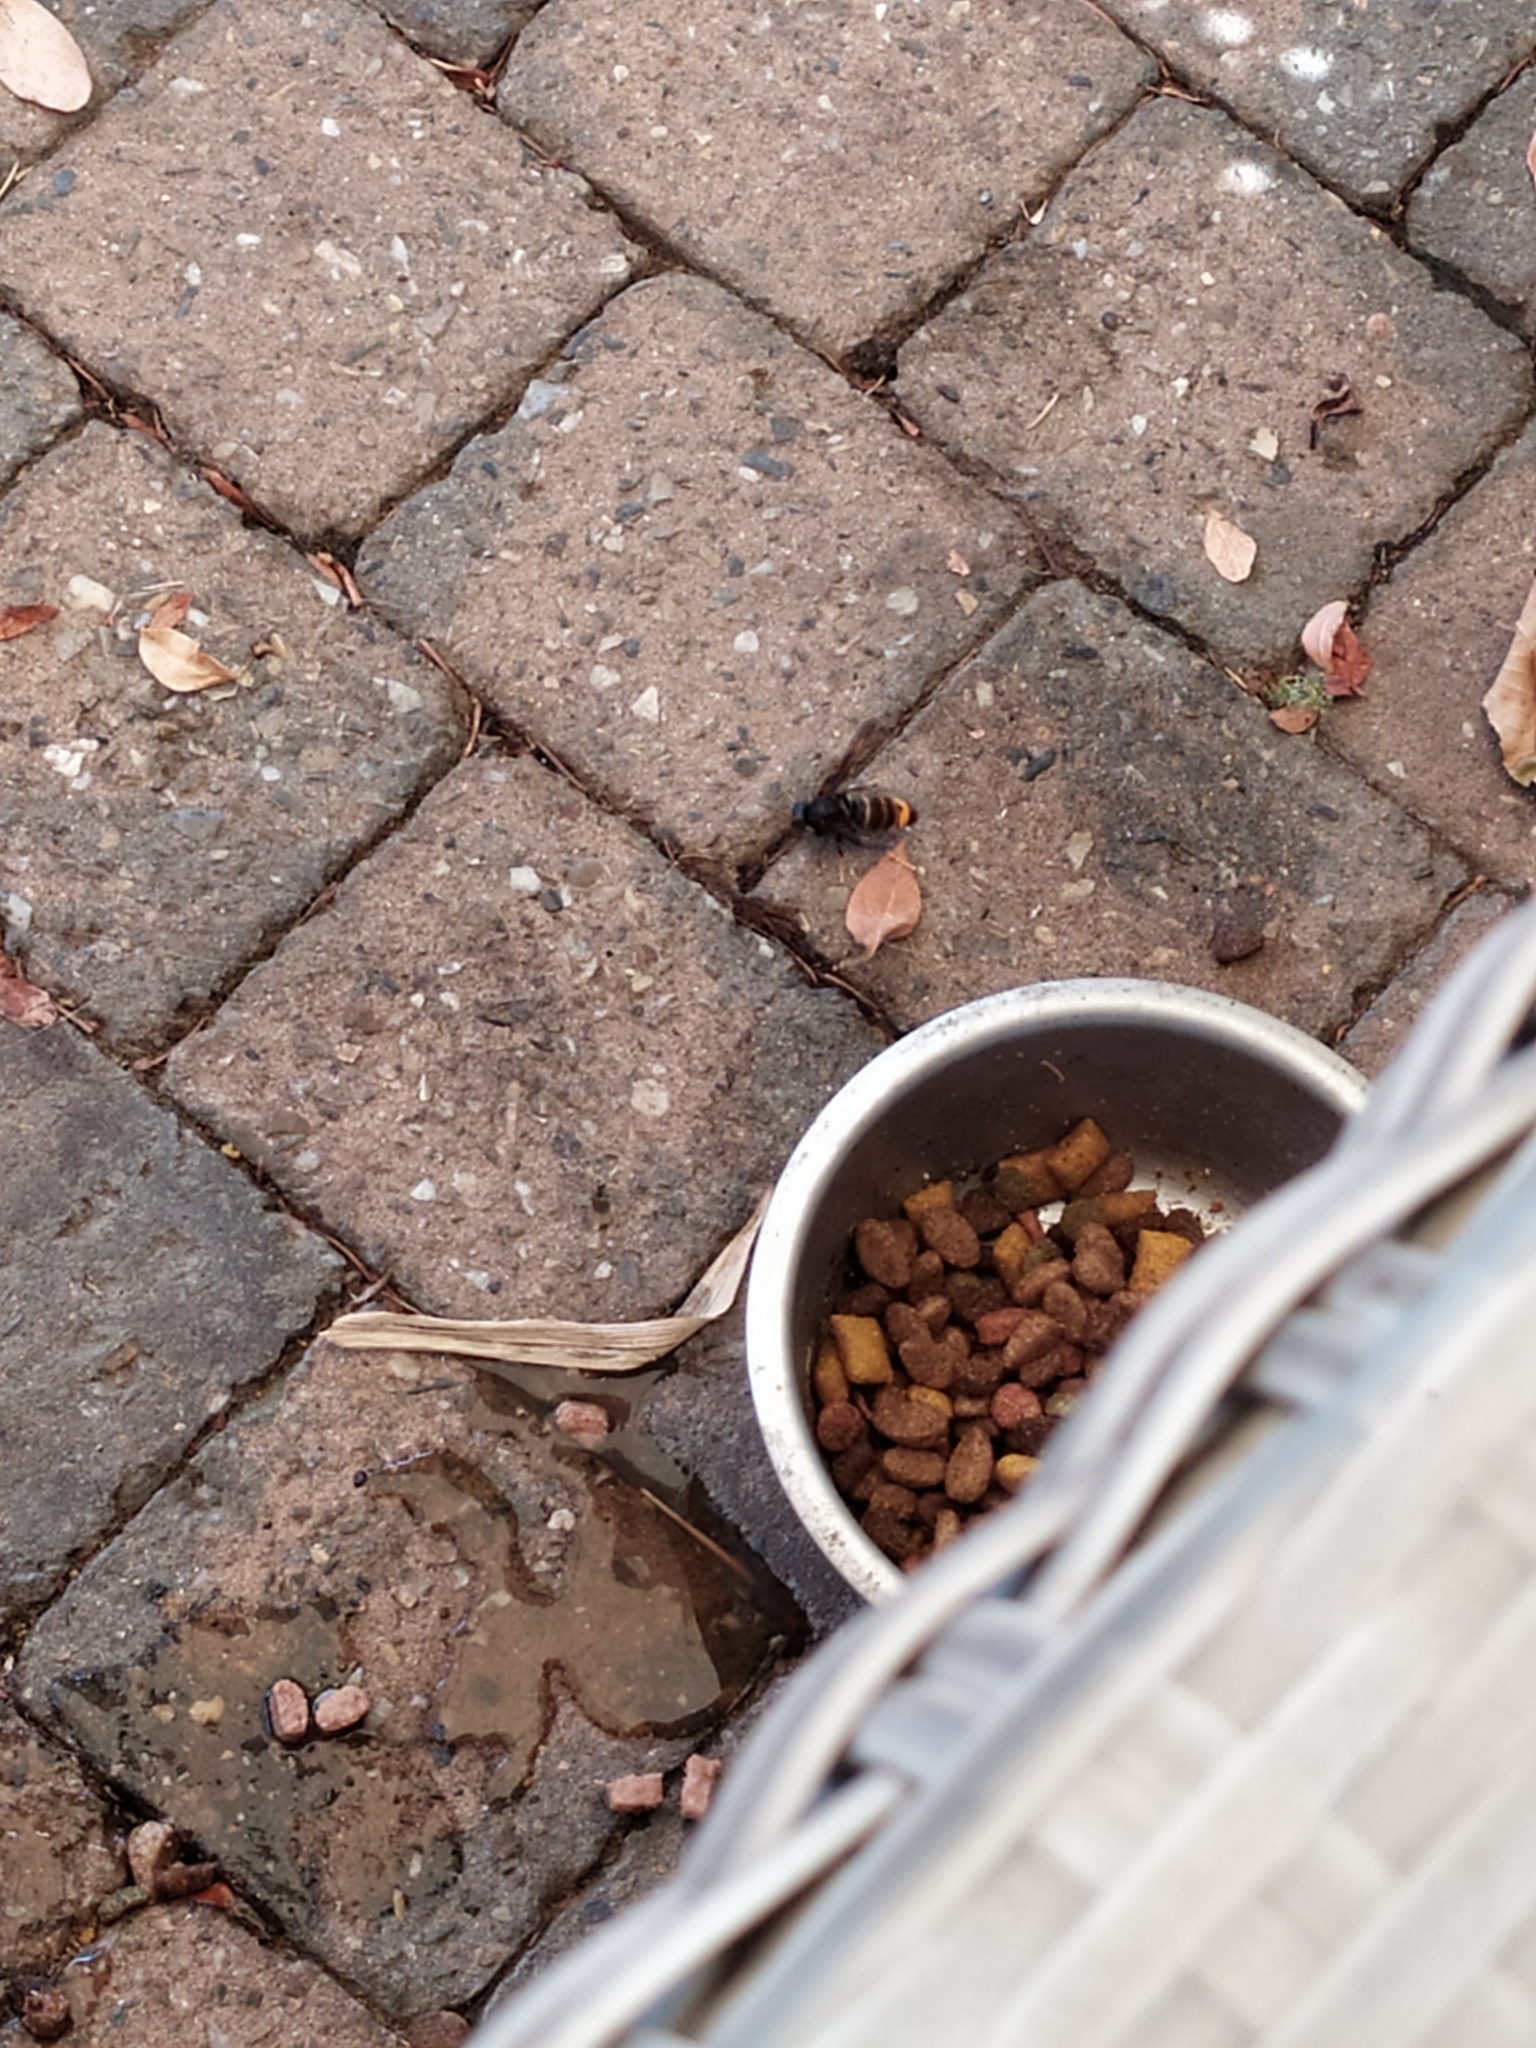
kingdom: Animalia
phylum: Arthropoda
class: Insecta
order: Hymenoptera
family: Vespidae
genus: Vespa
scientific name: Vespa velutina
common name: Asian hornet
